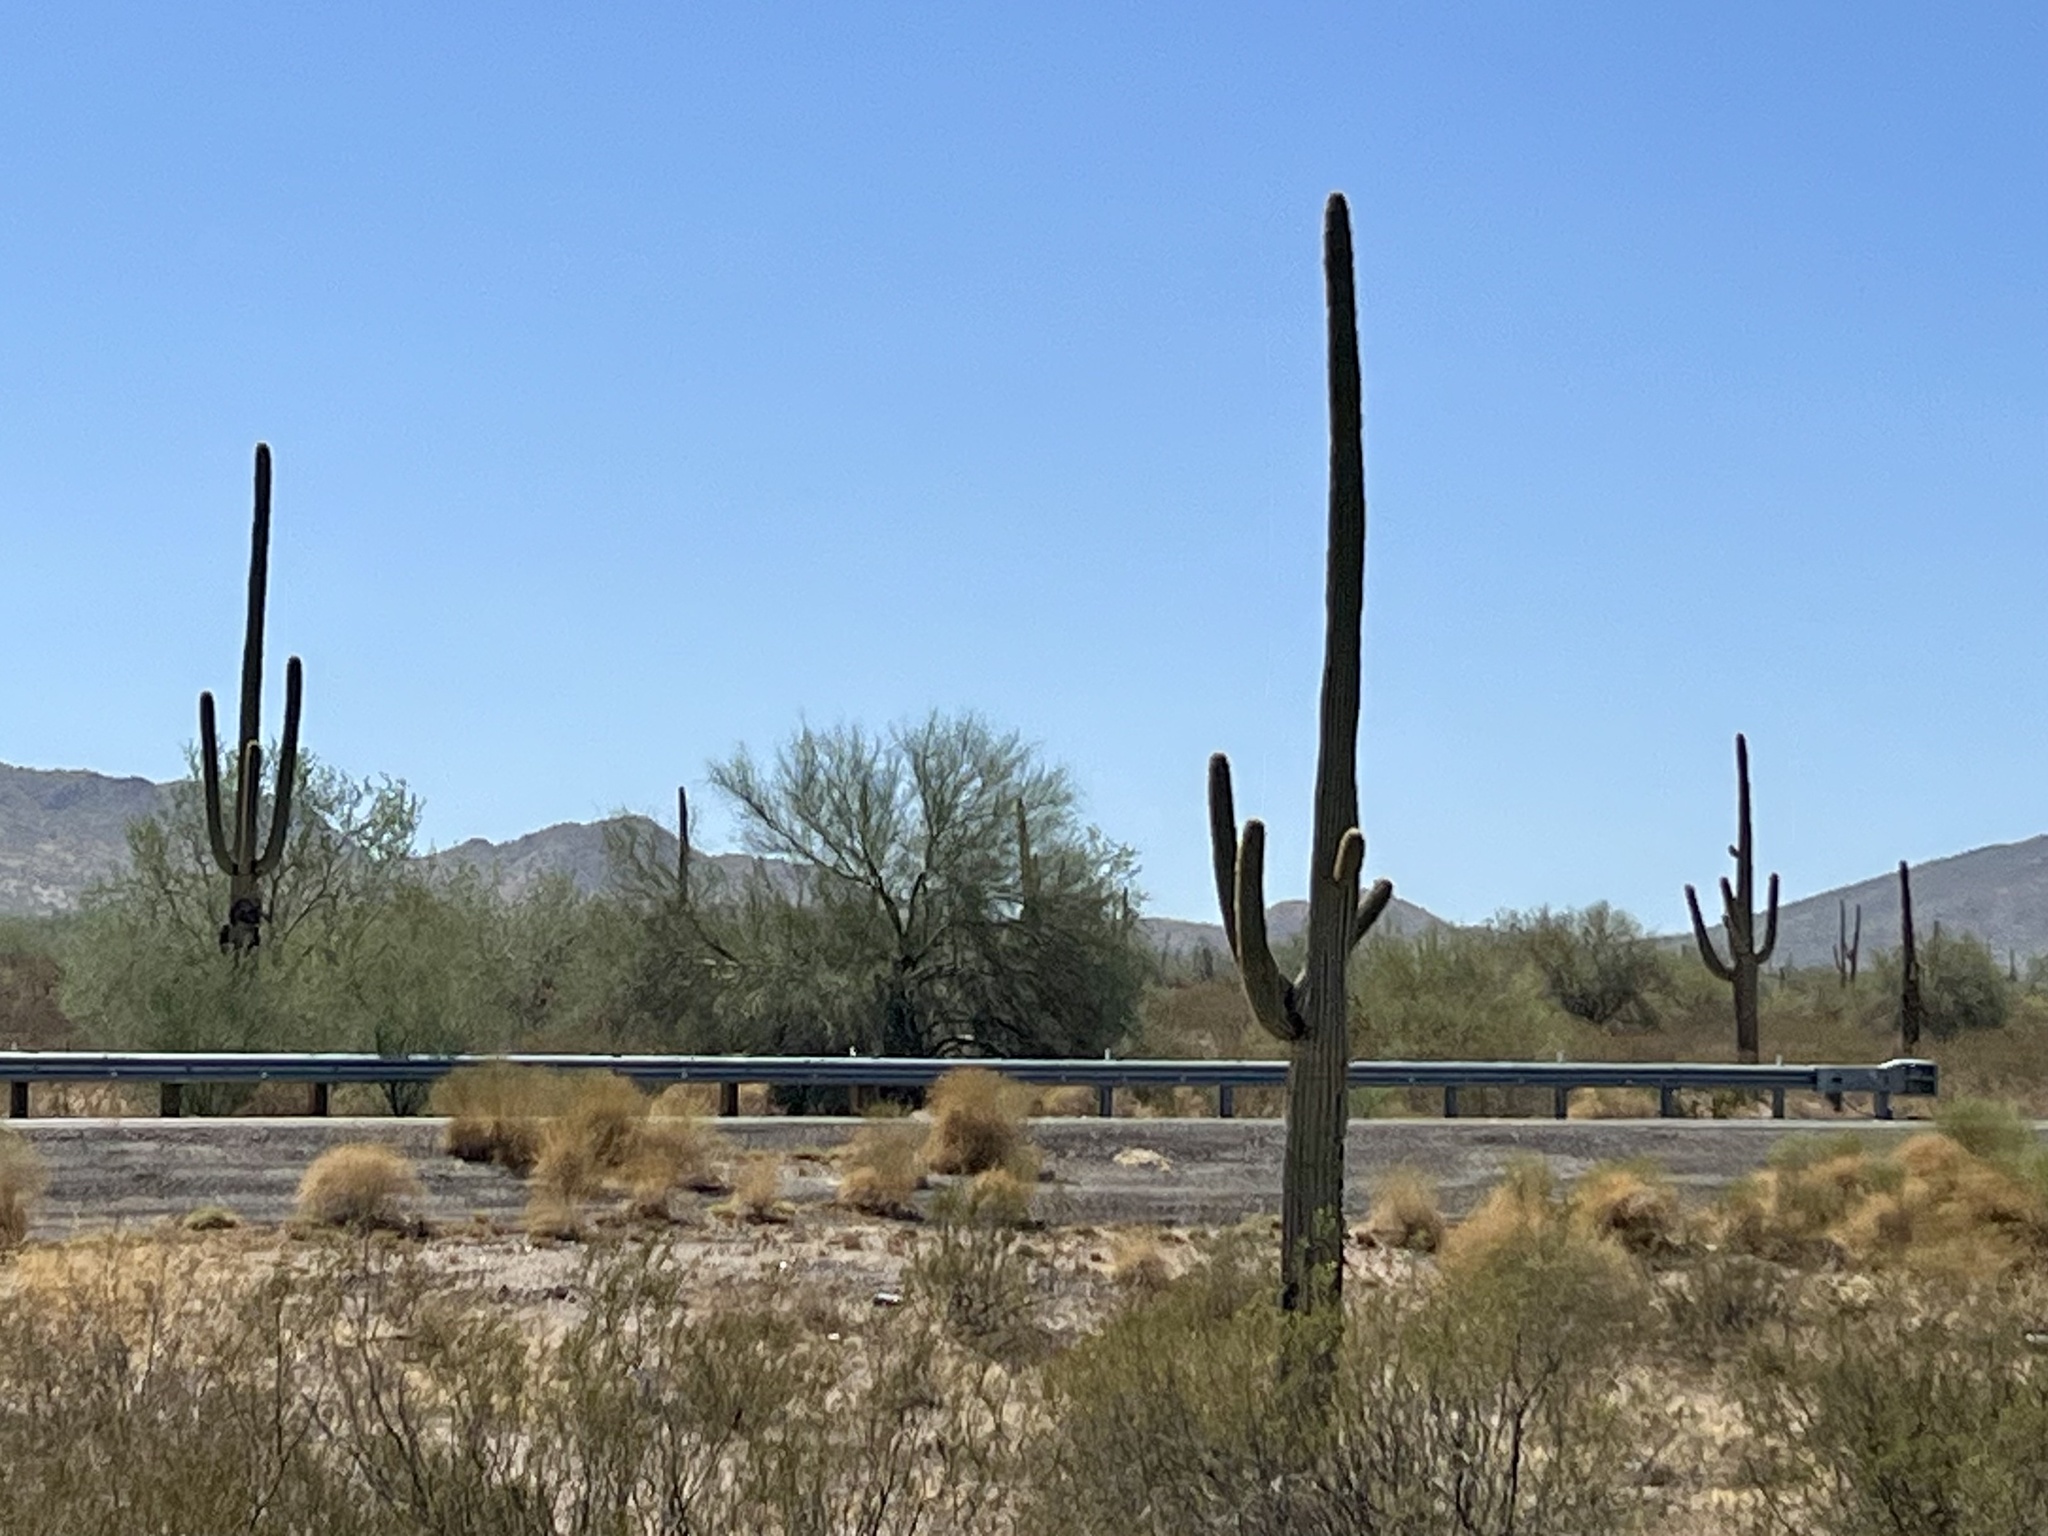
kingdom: Plantae
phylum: Tracheophyta
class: Magnoliopsida
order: Caryophyllales
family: Cactaceae
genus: Carnegiea
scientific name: Carnegiea gigantea
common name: Saguaro
